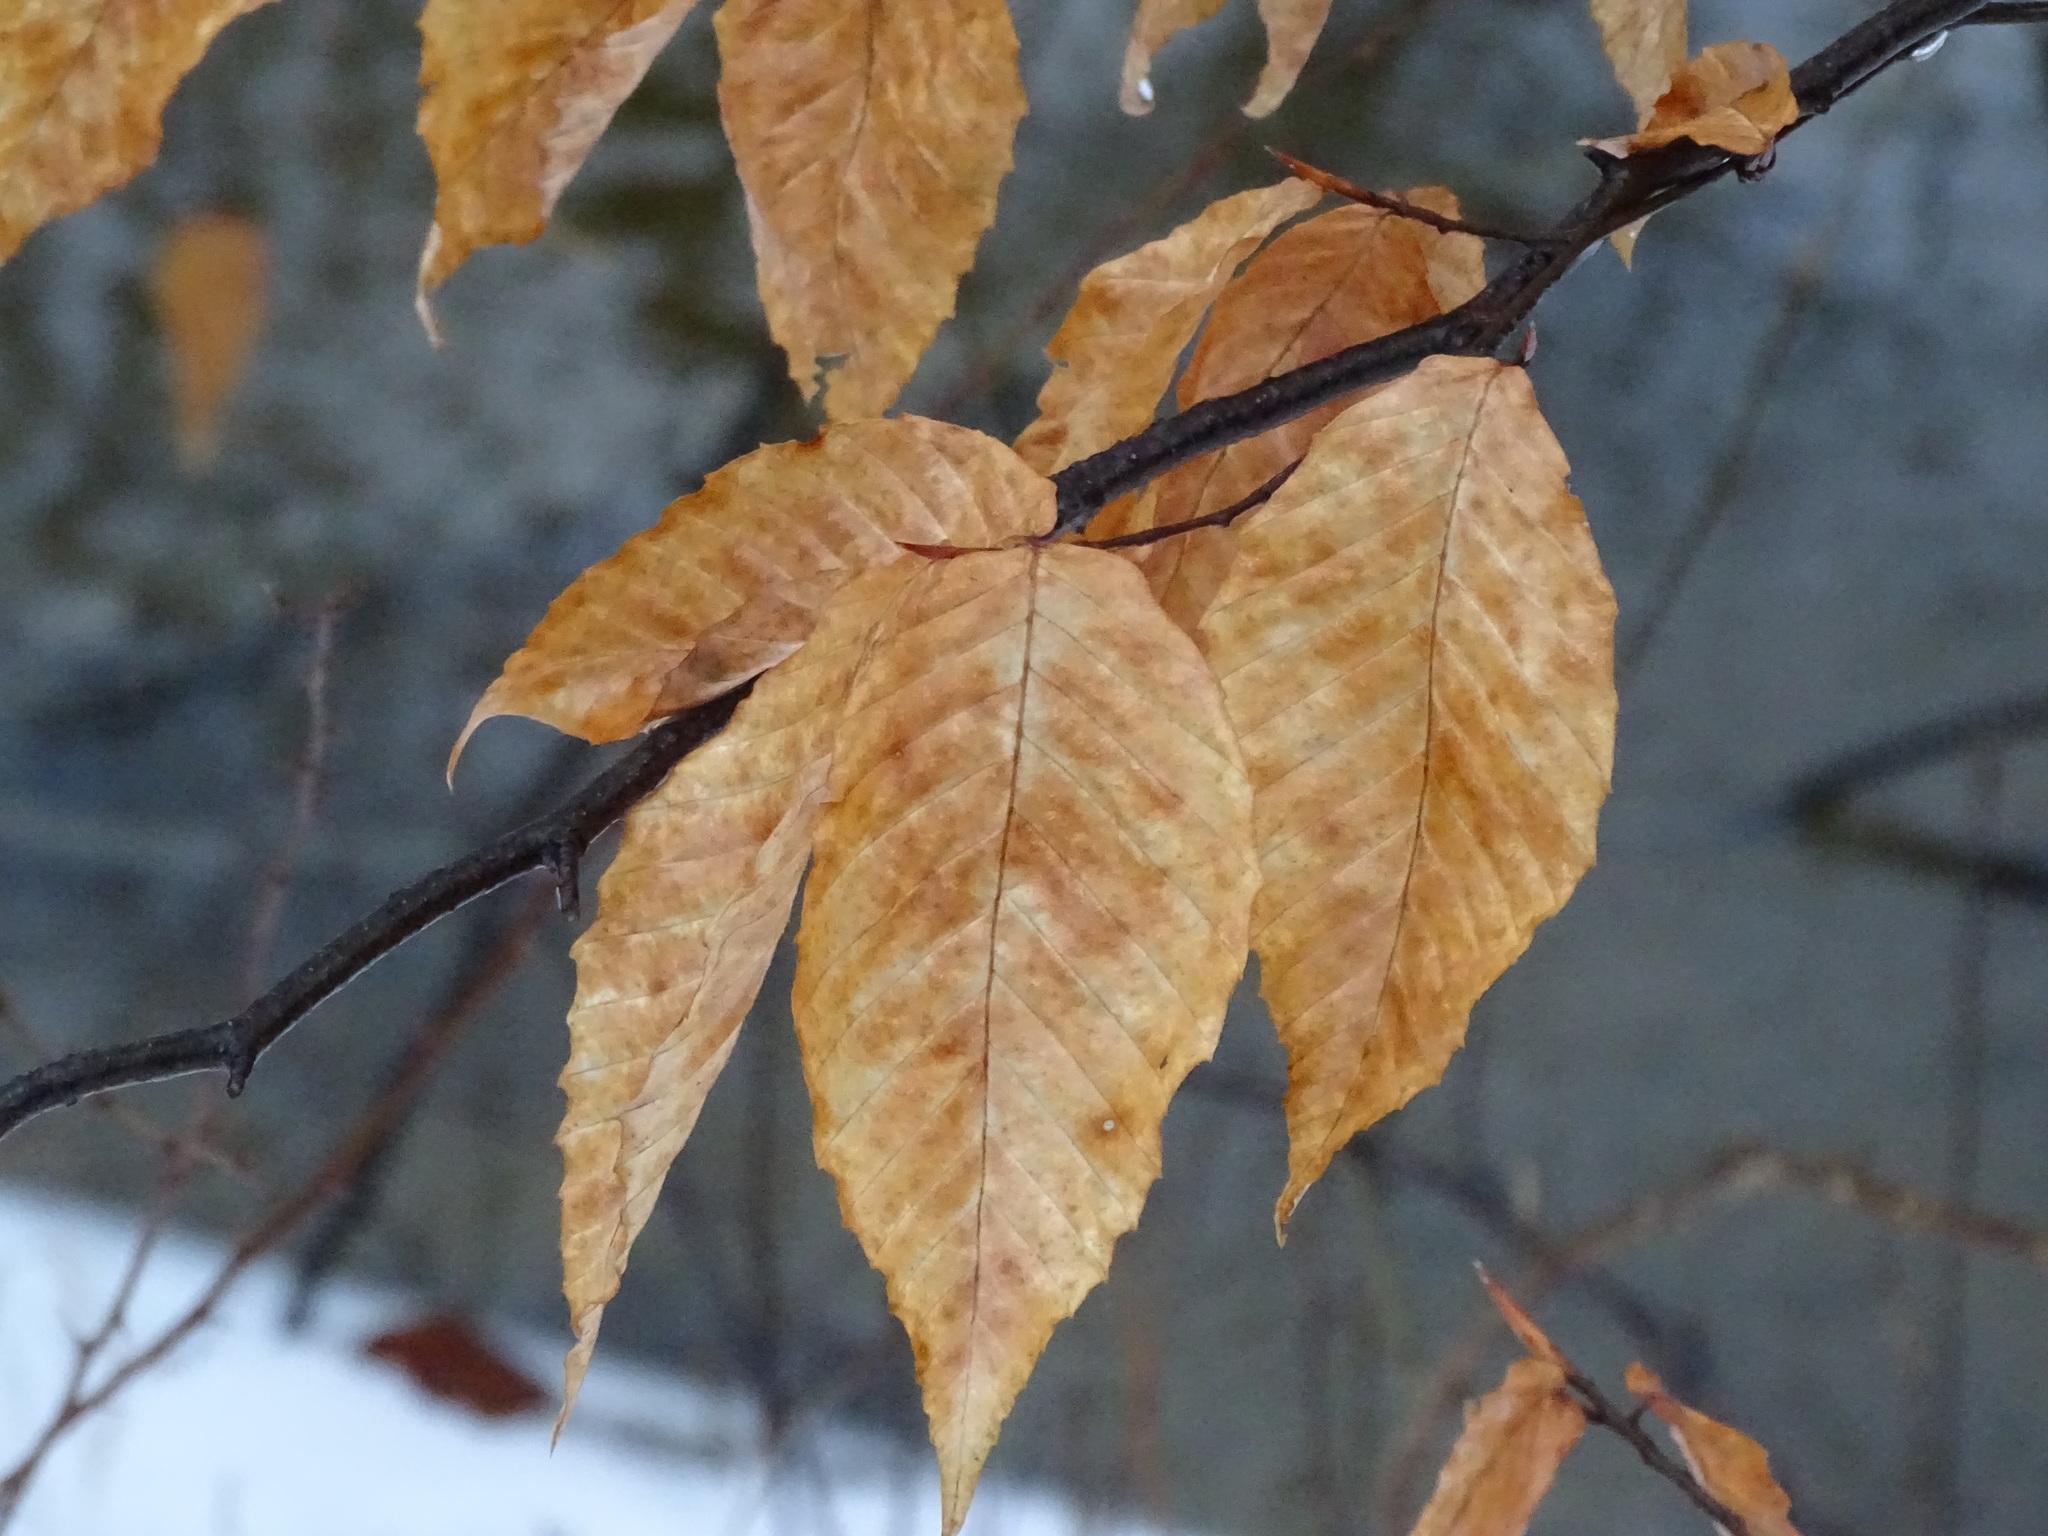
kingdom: Plantae
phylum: Tracheophyta
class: Magnoliopsida
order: Fagales
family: Fagaceae
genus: Fagus
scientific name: Fagus grandifolia
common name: American beech
